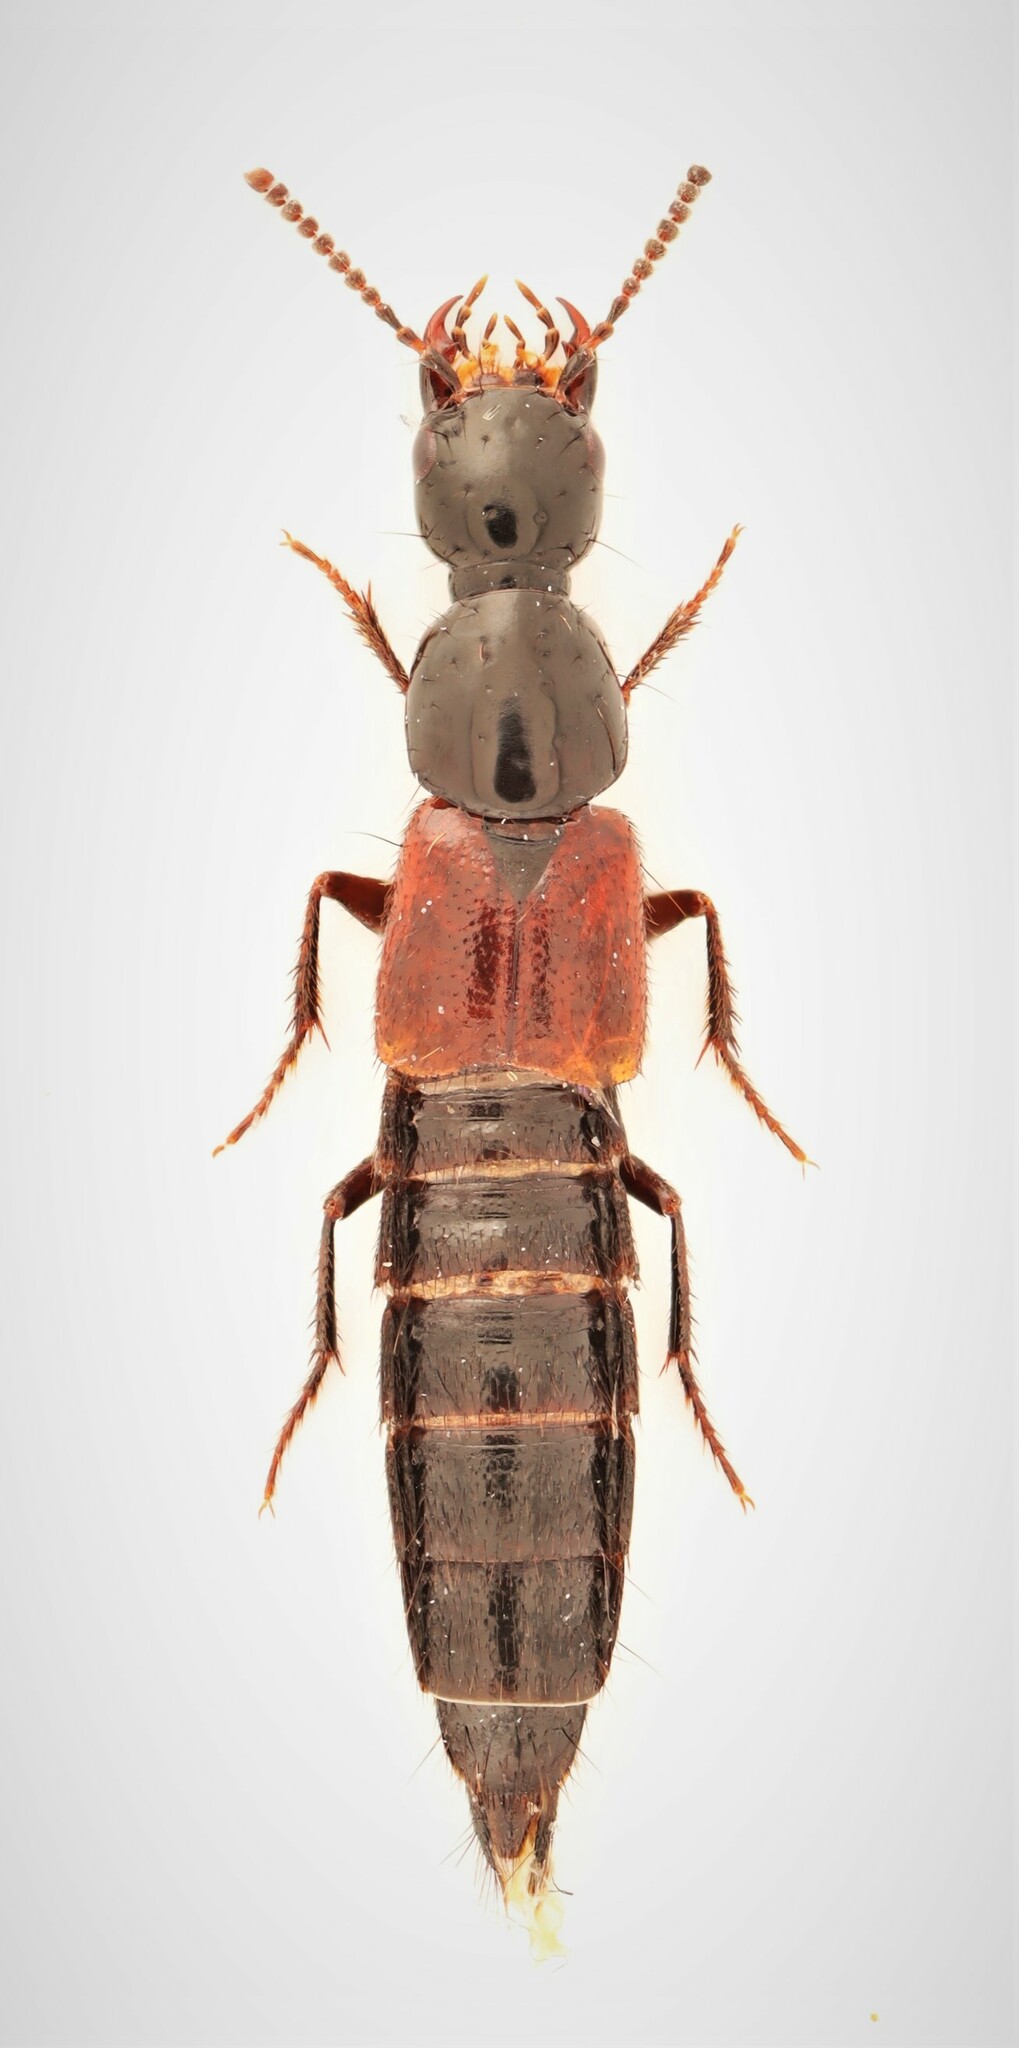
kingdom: Animalia
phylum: Arthropoda
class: Insecta
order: Coleoptera
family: Staphylinidae
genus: Bisnius
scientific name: Bisnius quediinus
